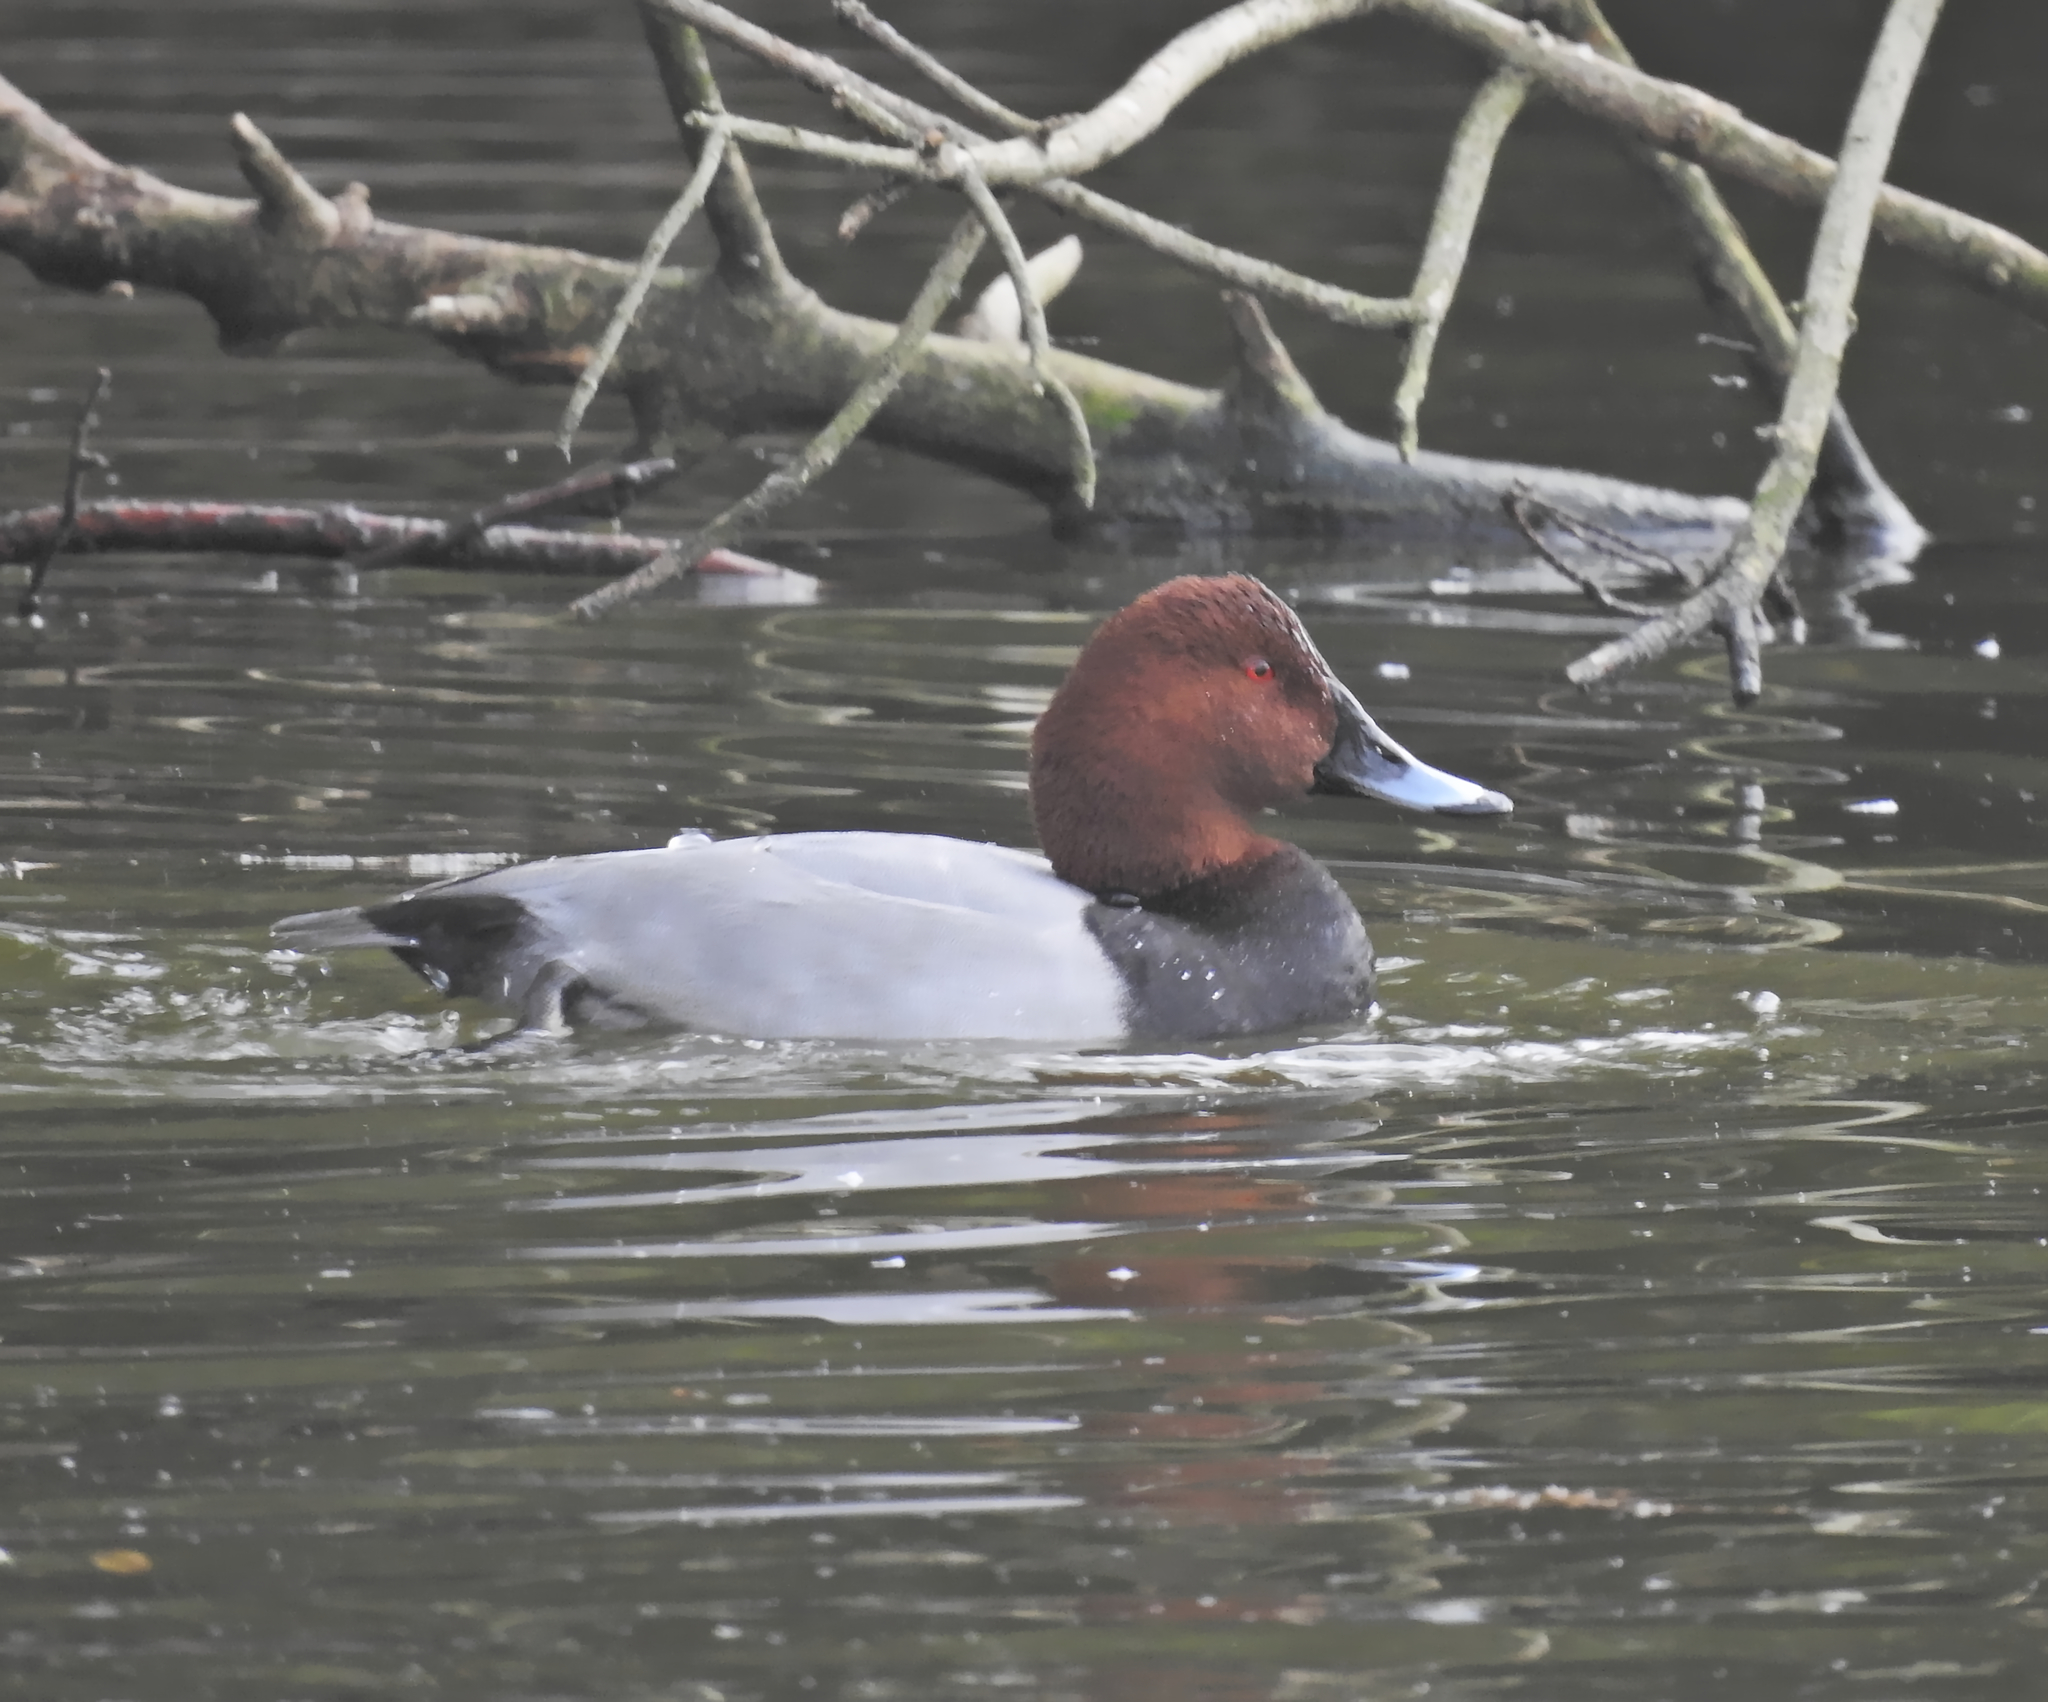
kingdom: Animalia
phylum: Chordata
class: Aves
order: Anseriformes
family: Anatidae
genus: Aythya
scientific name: Aythya ferina
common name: Common pochard
